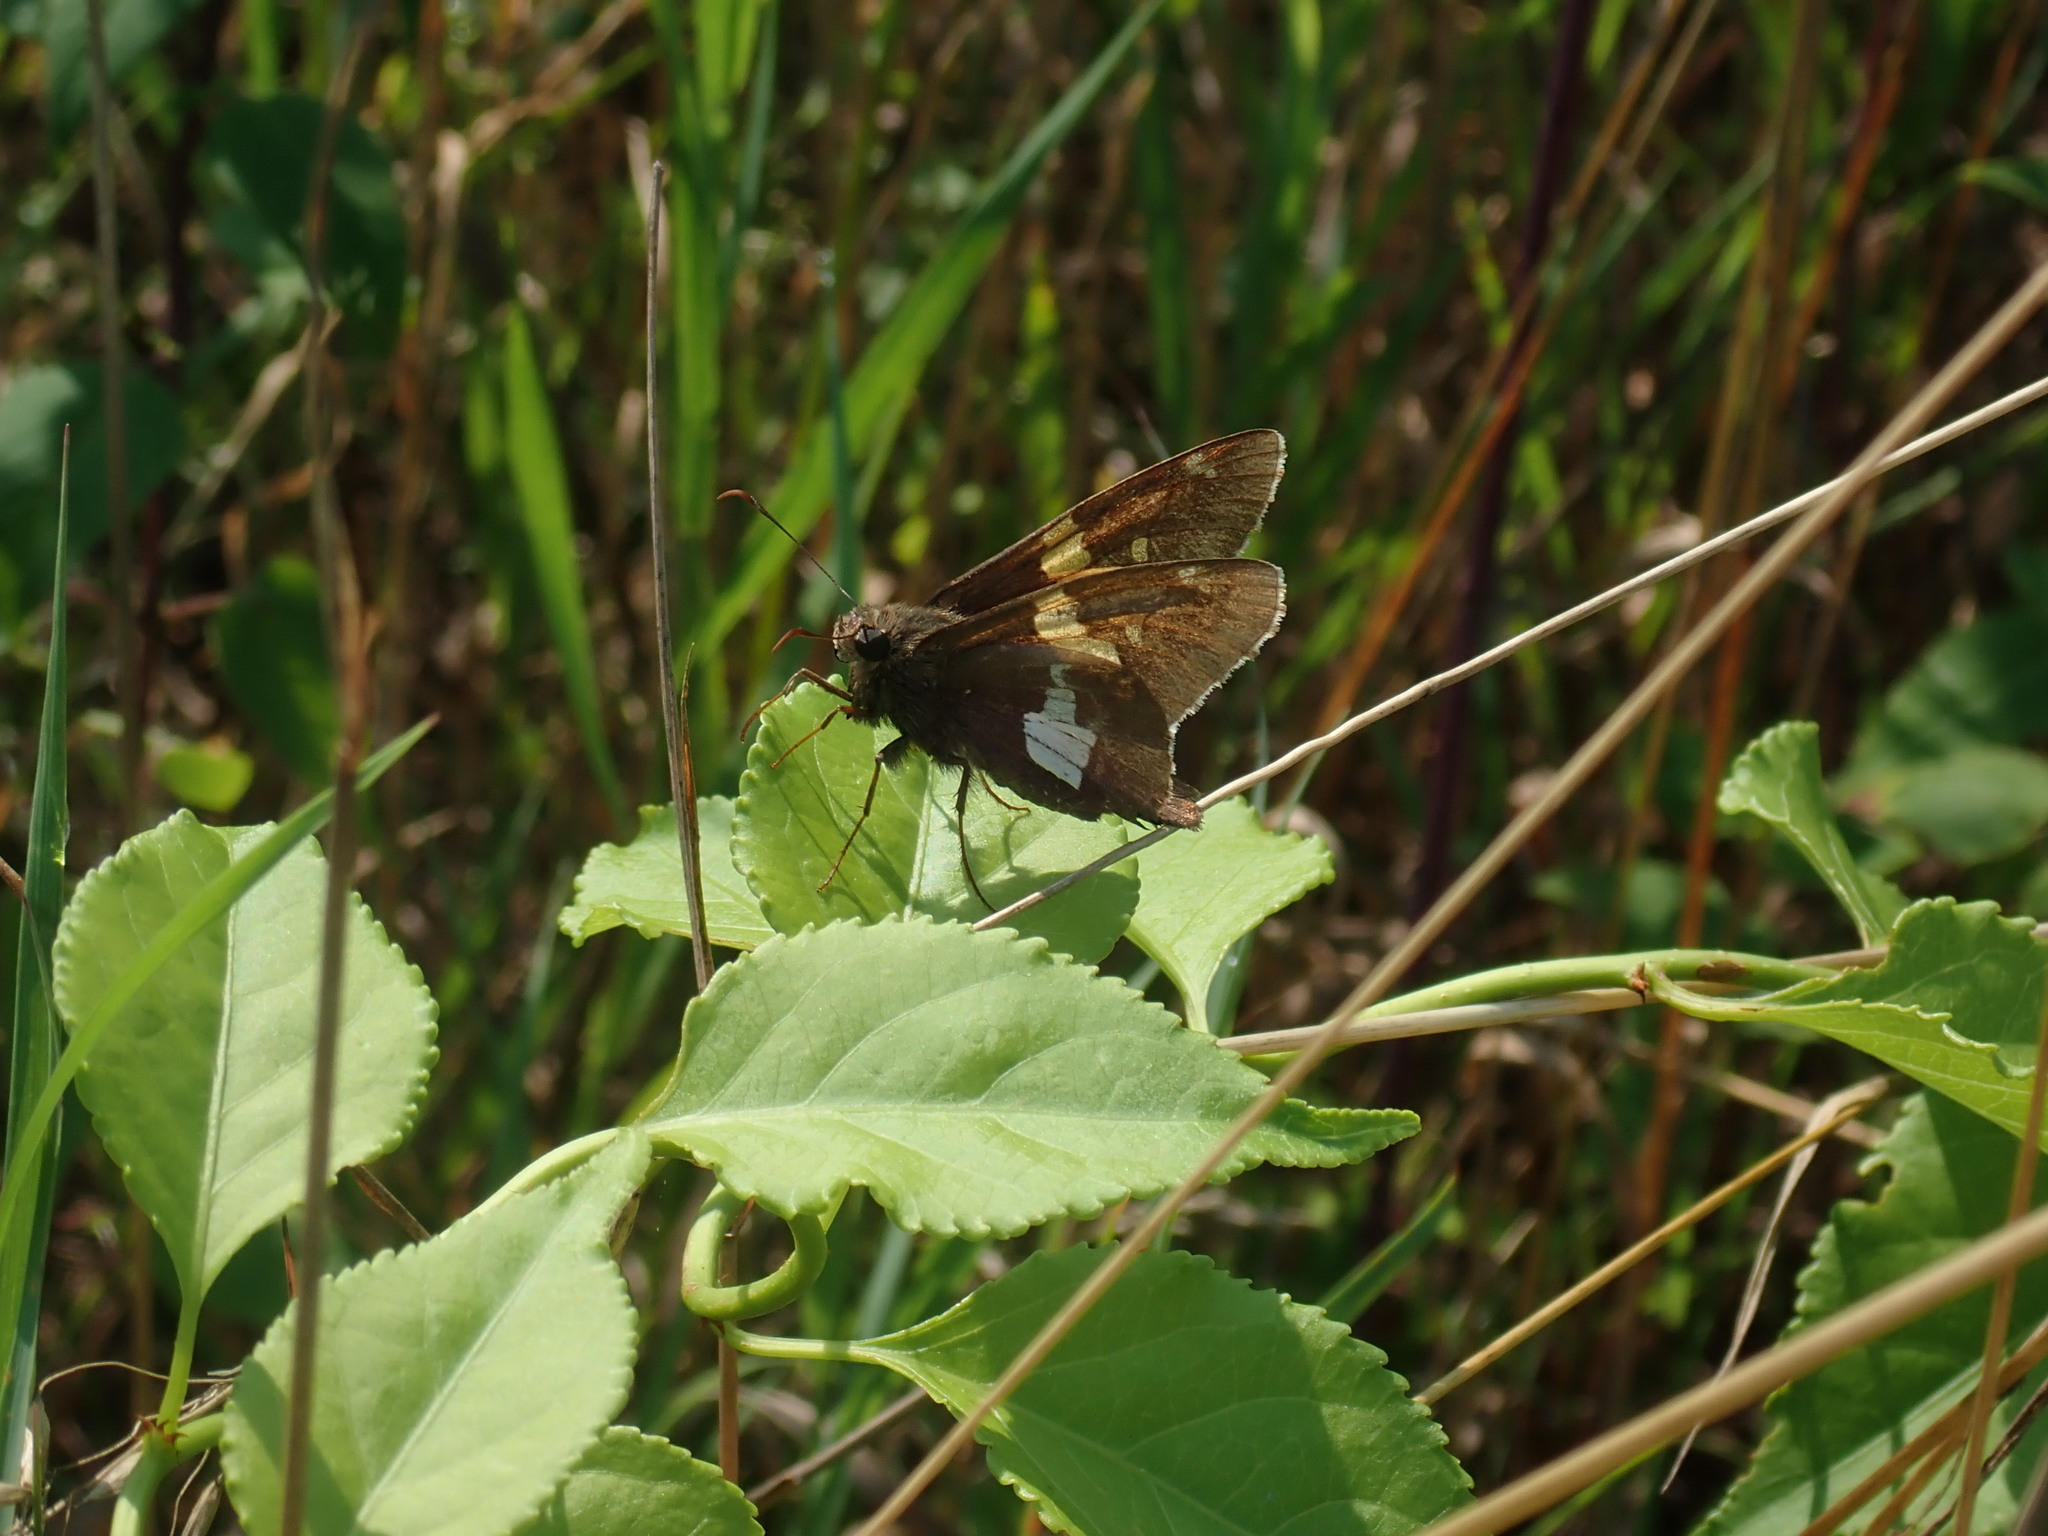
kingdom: Animalia
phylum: Arthropoda
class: Insecta
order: Lepidoptera
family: Hesperiidae
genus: Epargyreus
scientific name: Epargyreus clarus
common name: Silver-spotted skipper
